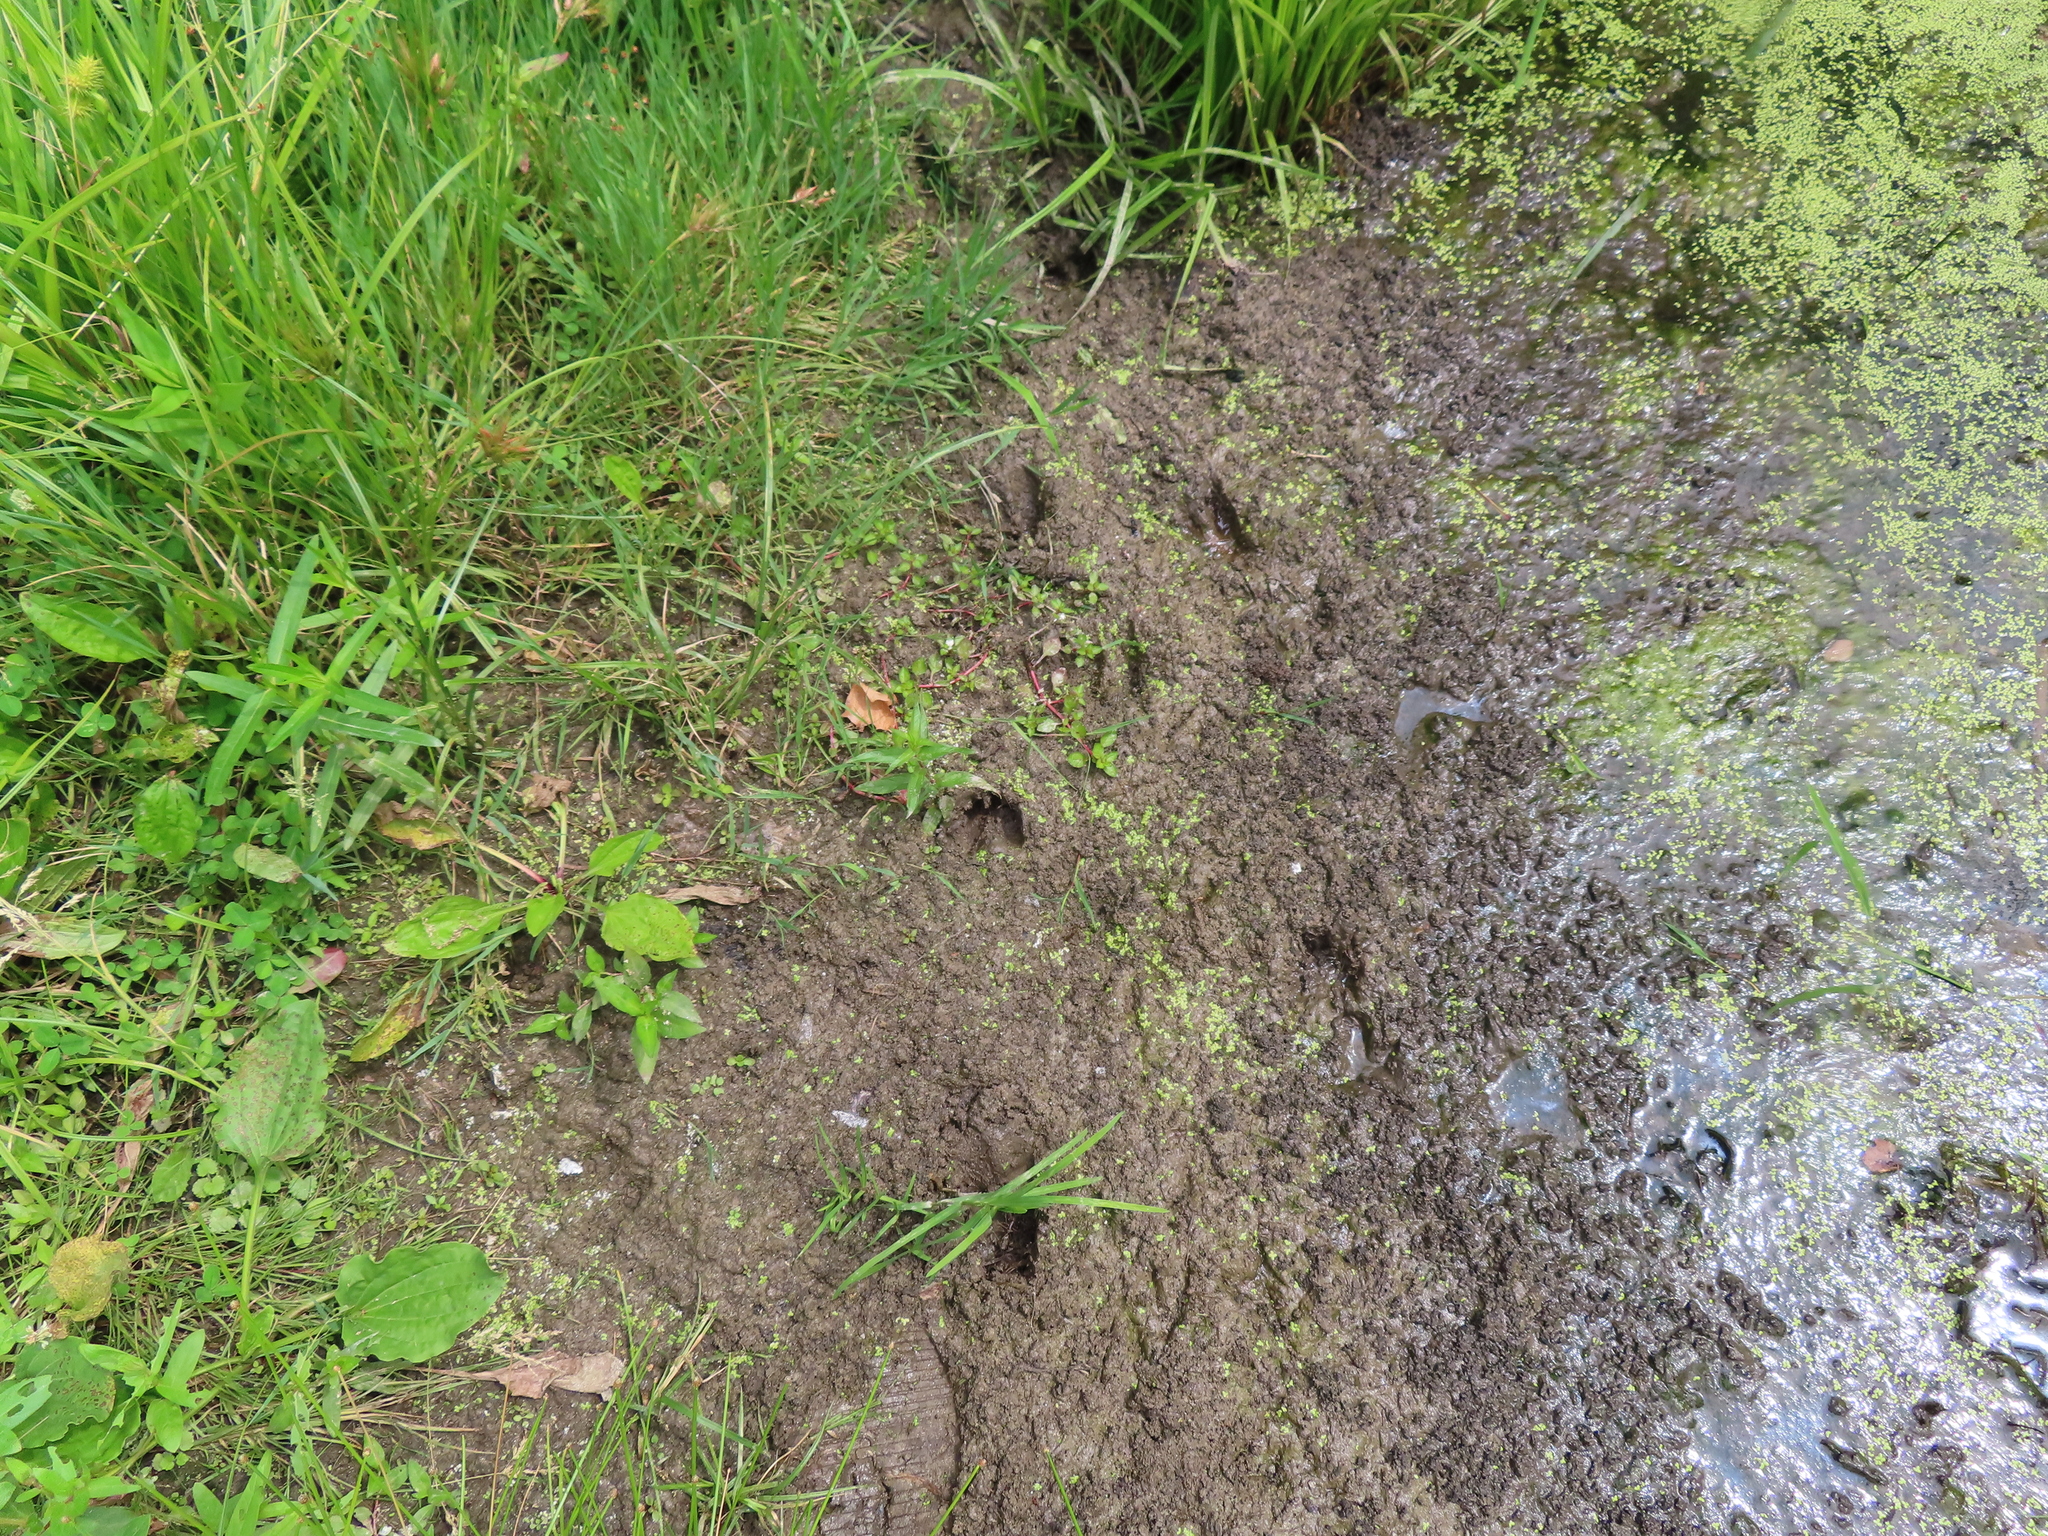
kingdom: Animalia
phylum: Chordata
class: Mammalia
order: Artiodactyla
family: Cervidae
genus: Odocoileus
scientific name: Odocoileus virginianus
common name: White-tailed deer
